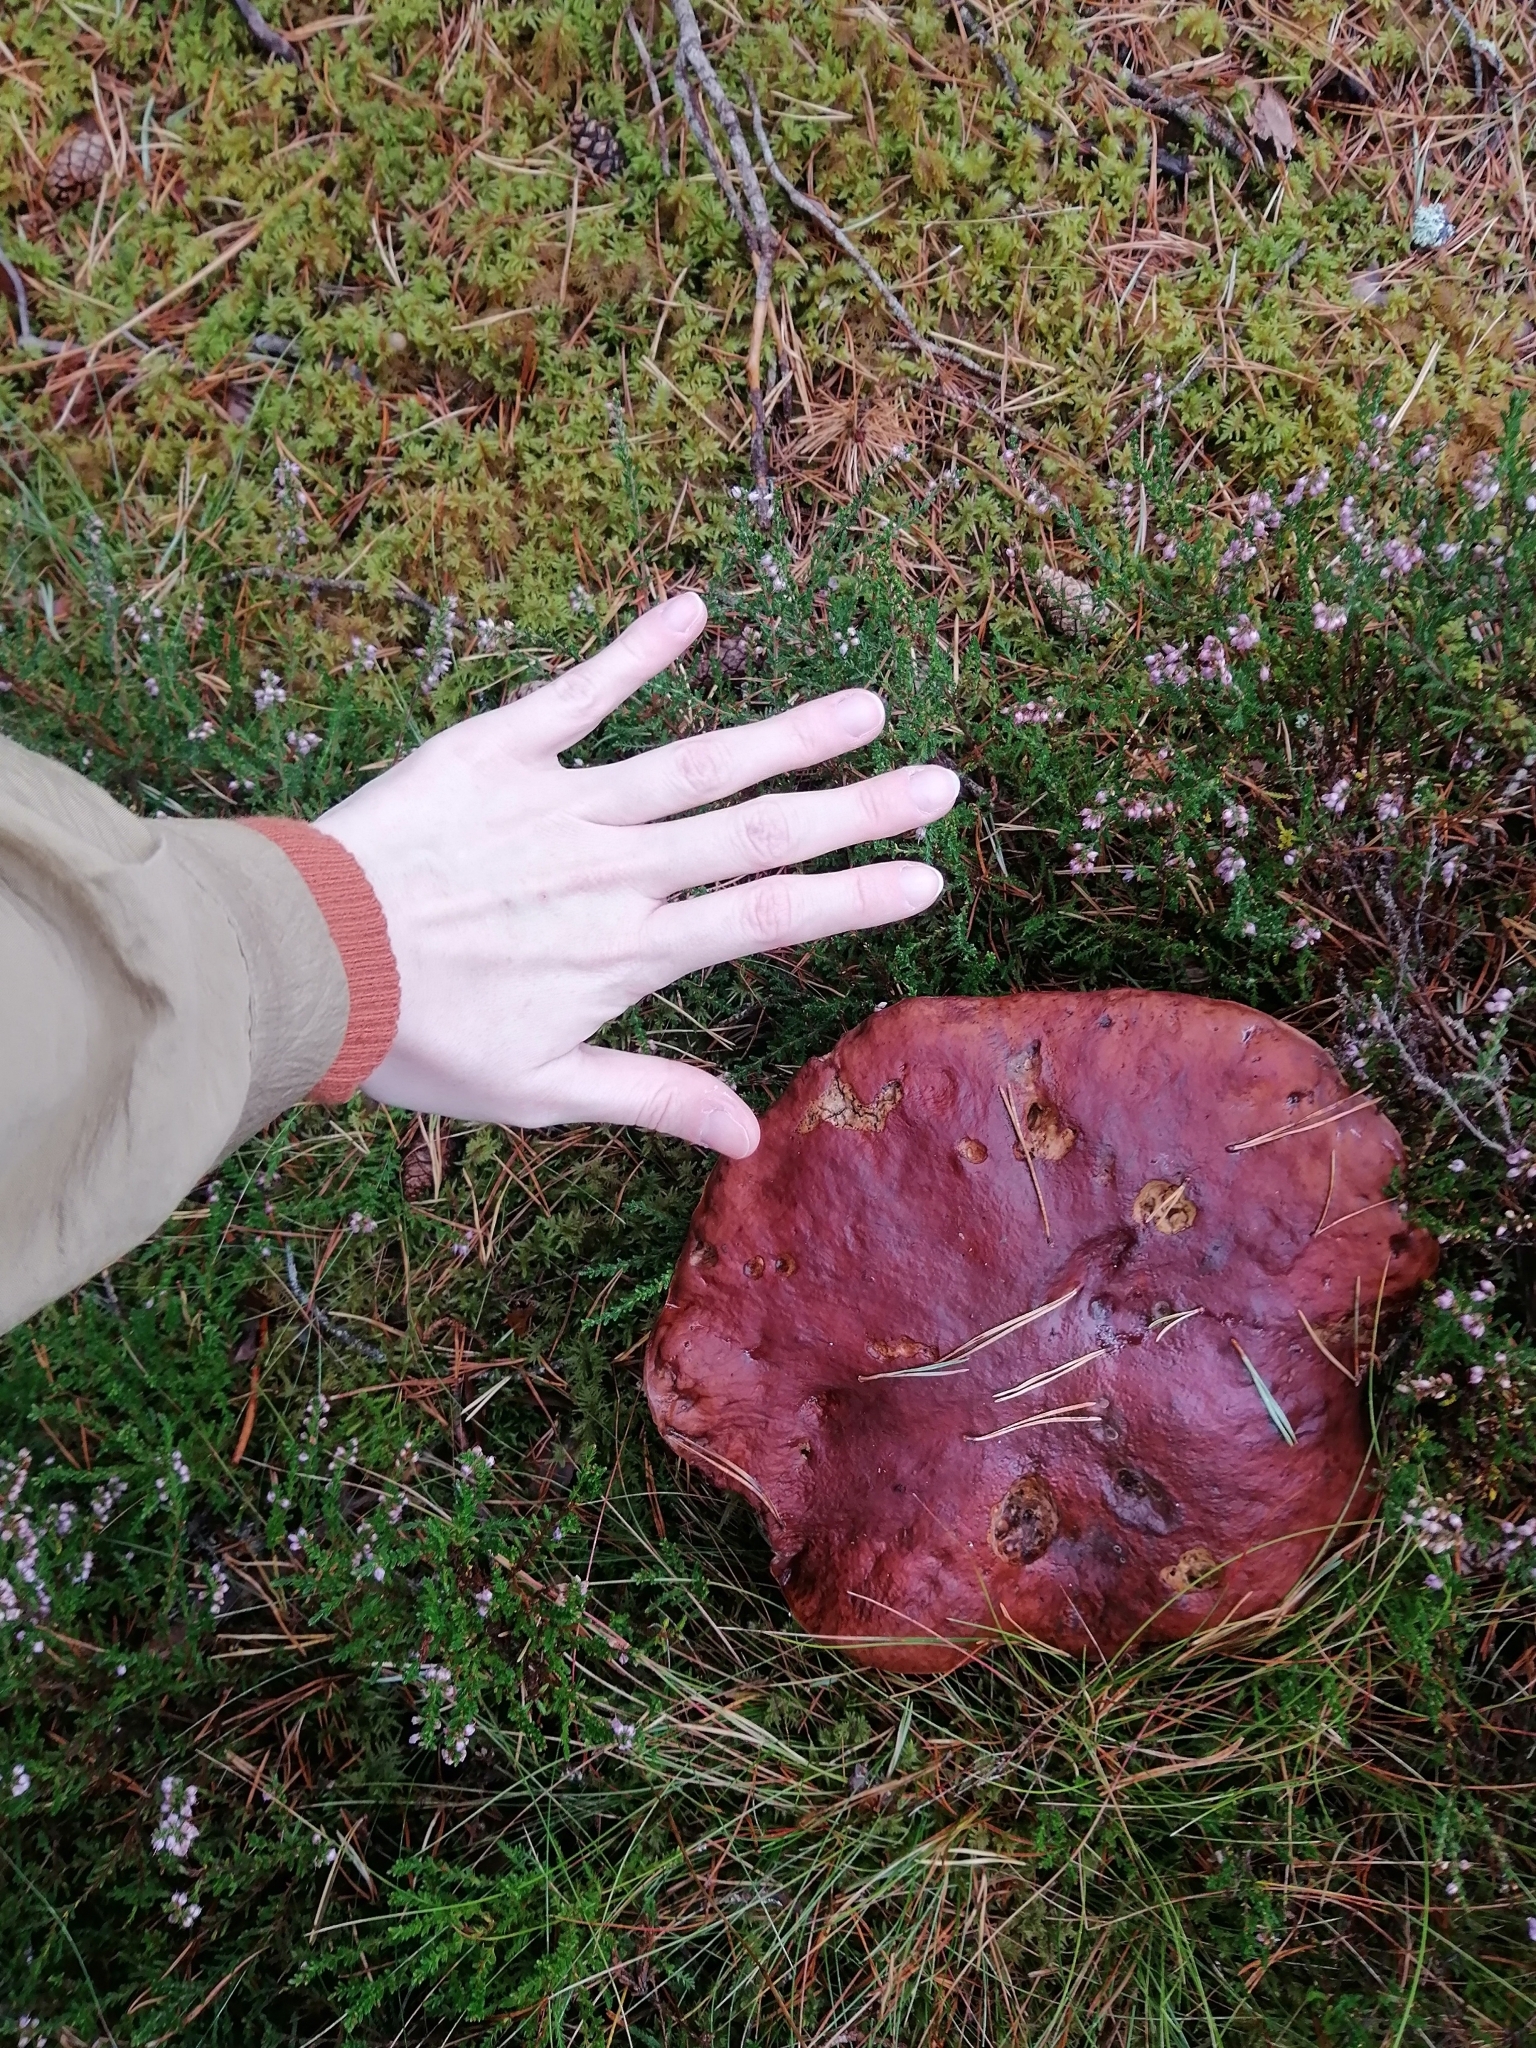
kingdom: Fungi
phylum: Basidiomycota
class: Agaricomycetes
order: Boletales
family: Boletaceae
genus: Boletus
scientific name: Boletus pinophilus
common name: Pine bolete
